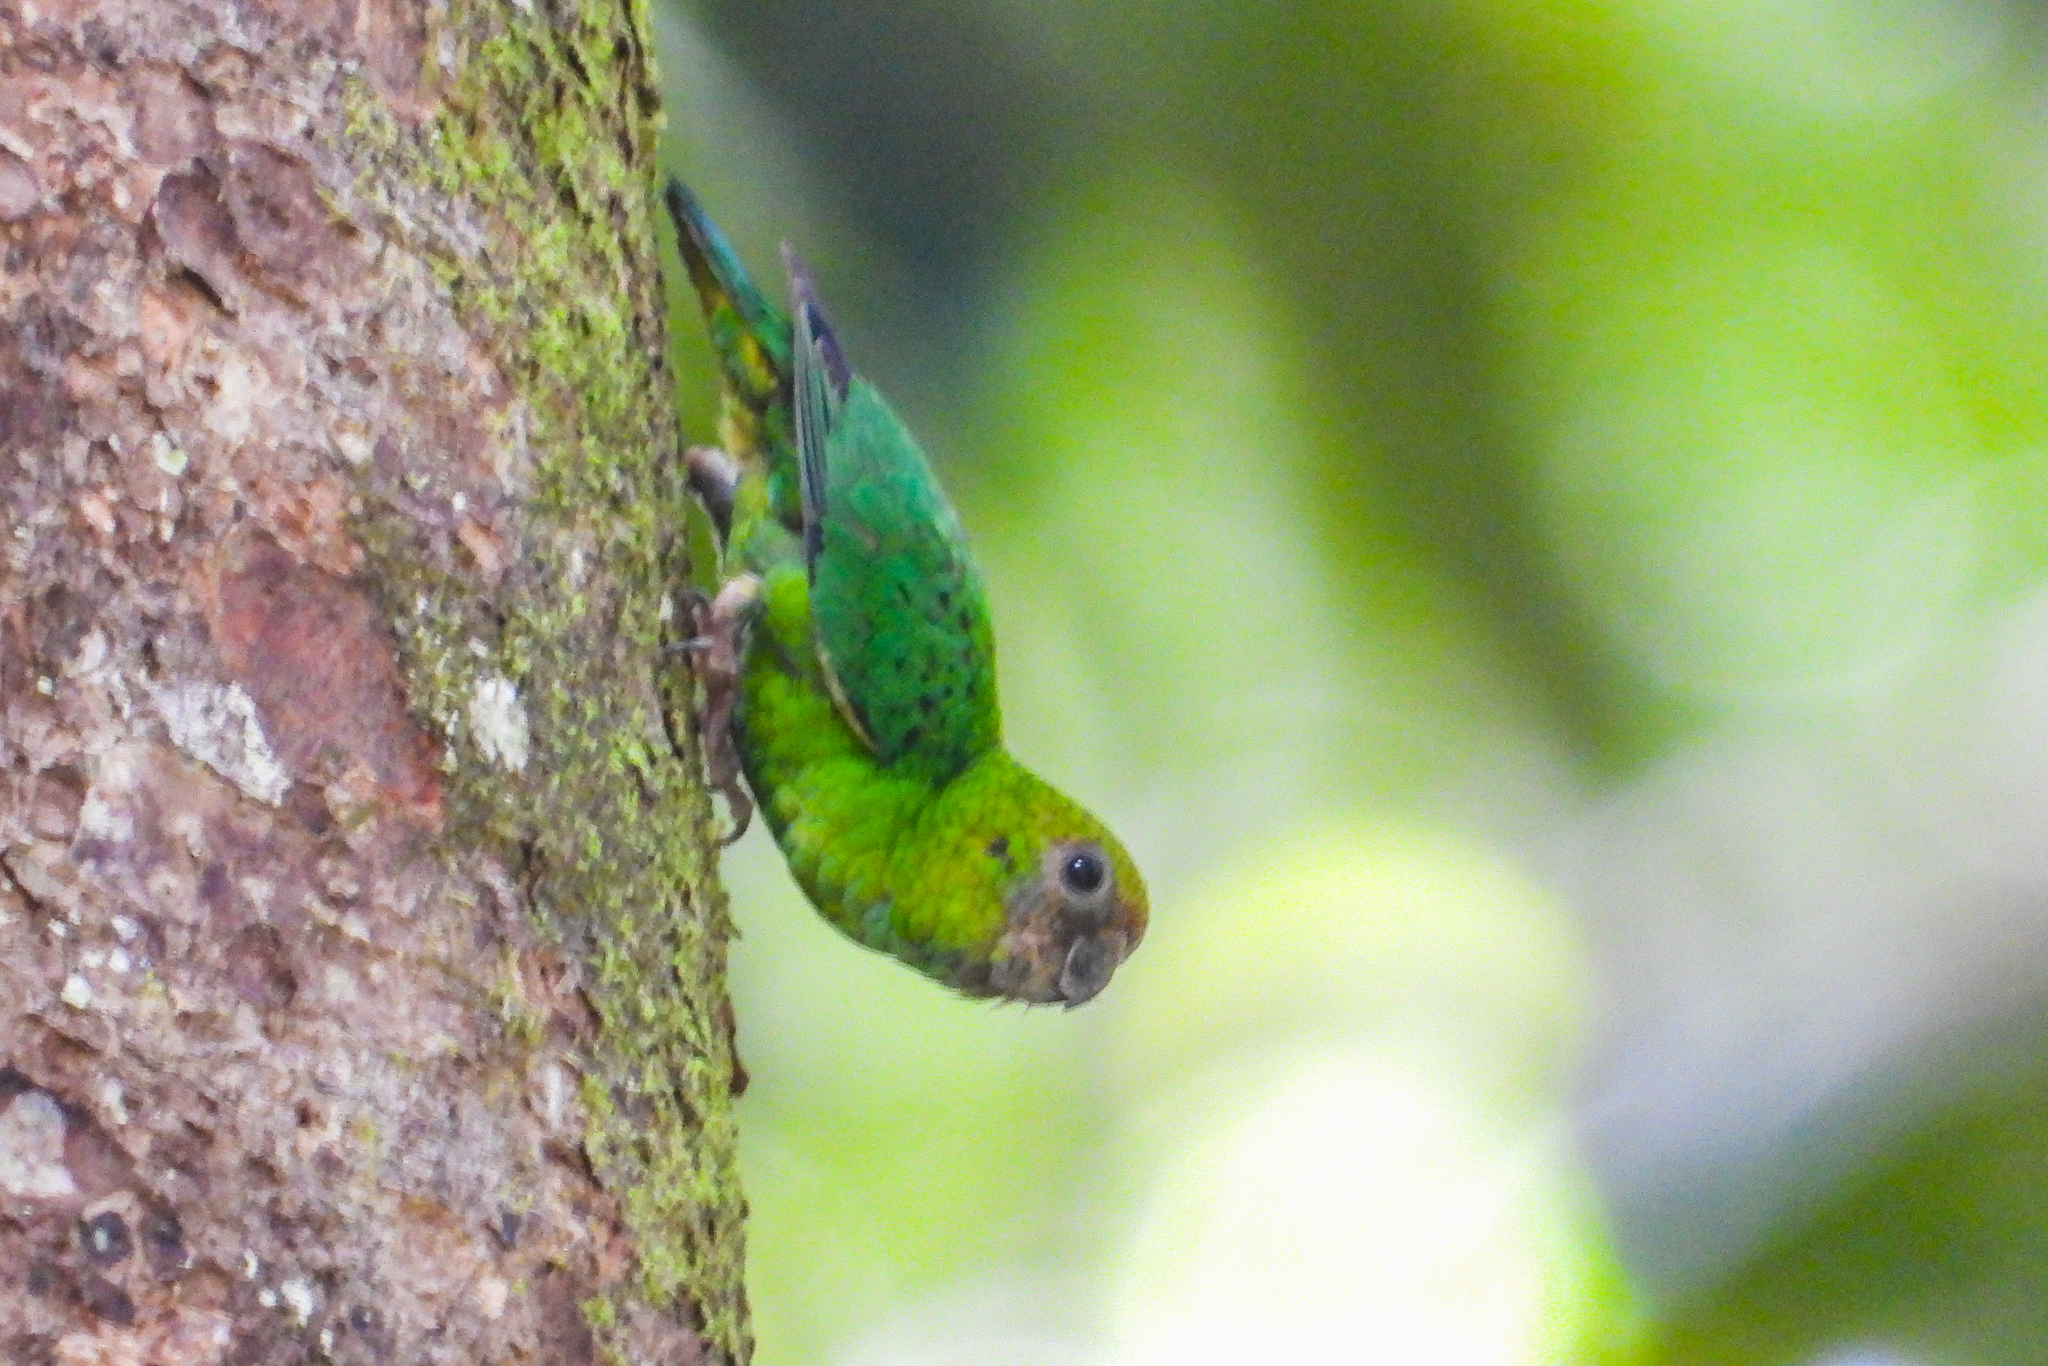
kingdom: Animalia
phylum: Chordata
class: Aves
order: Psittaciformes
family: Psittacidae
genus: Micropsitta
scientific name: Micropsitta keiensis
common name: Yellow-capped pygmy parrot
